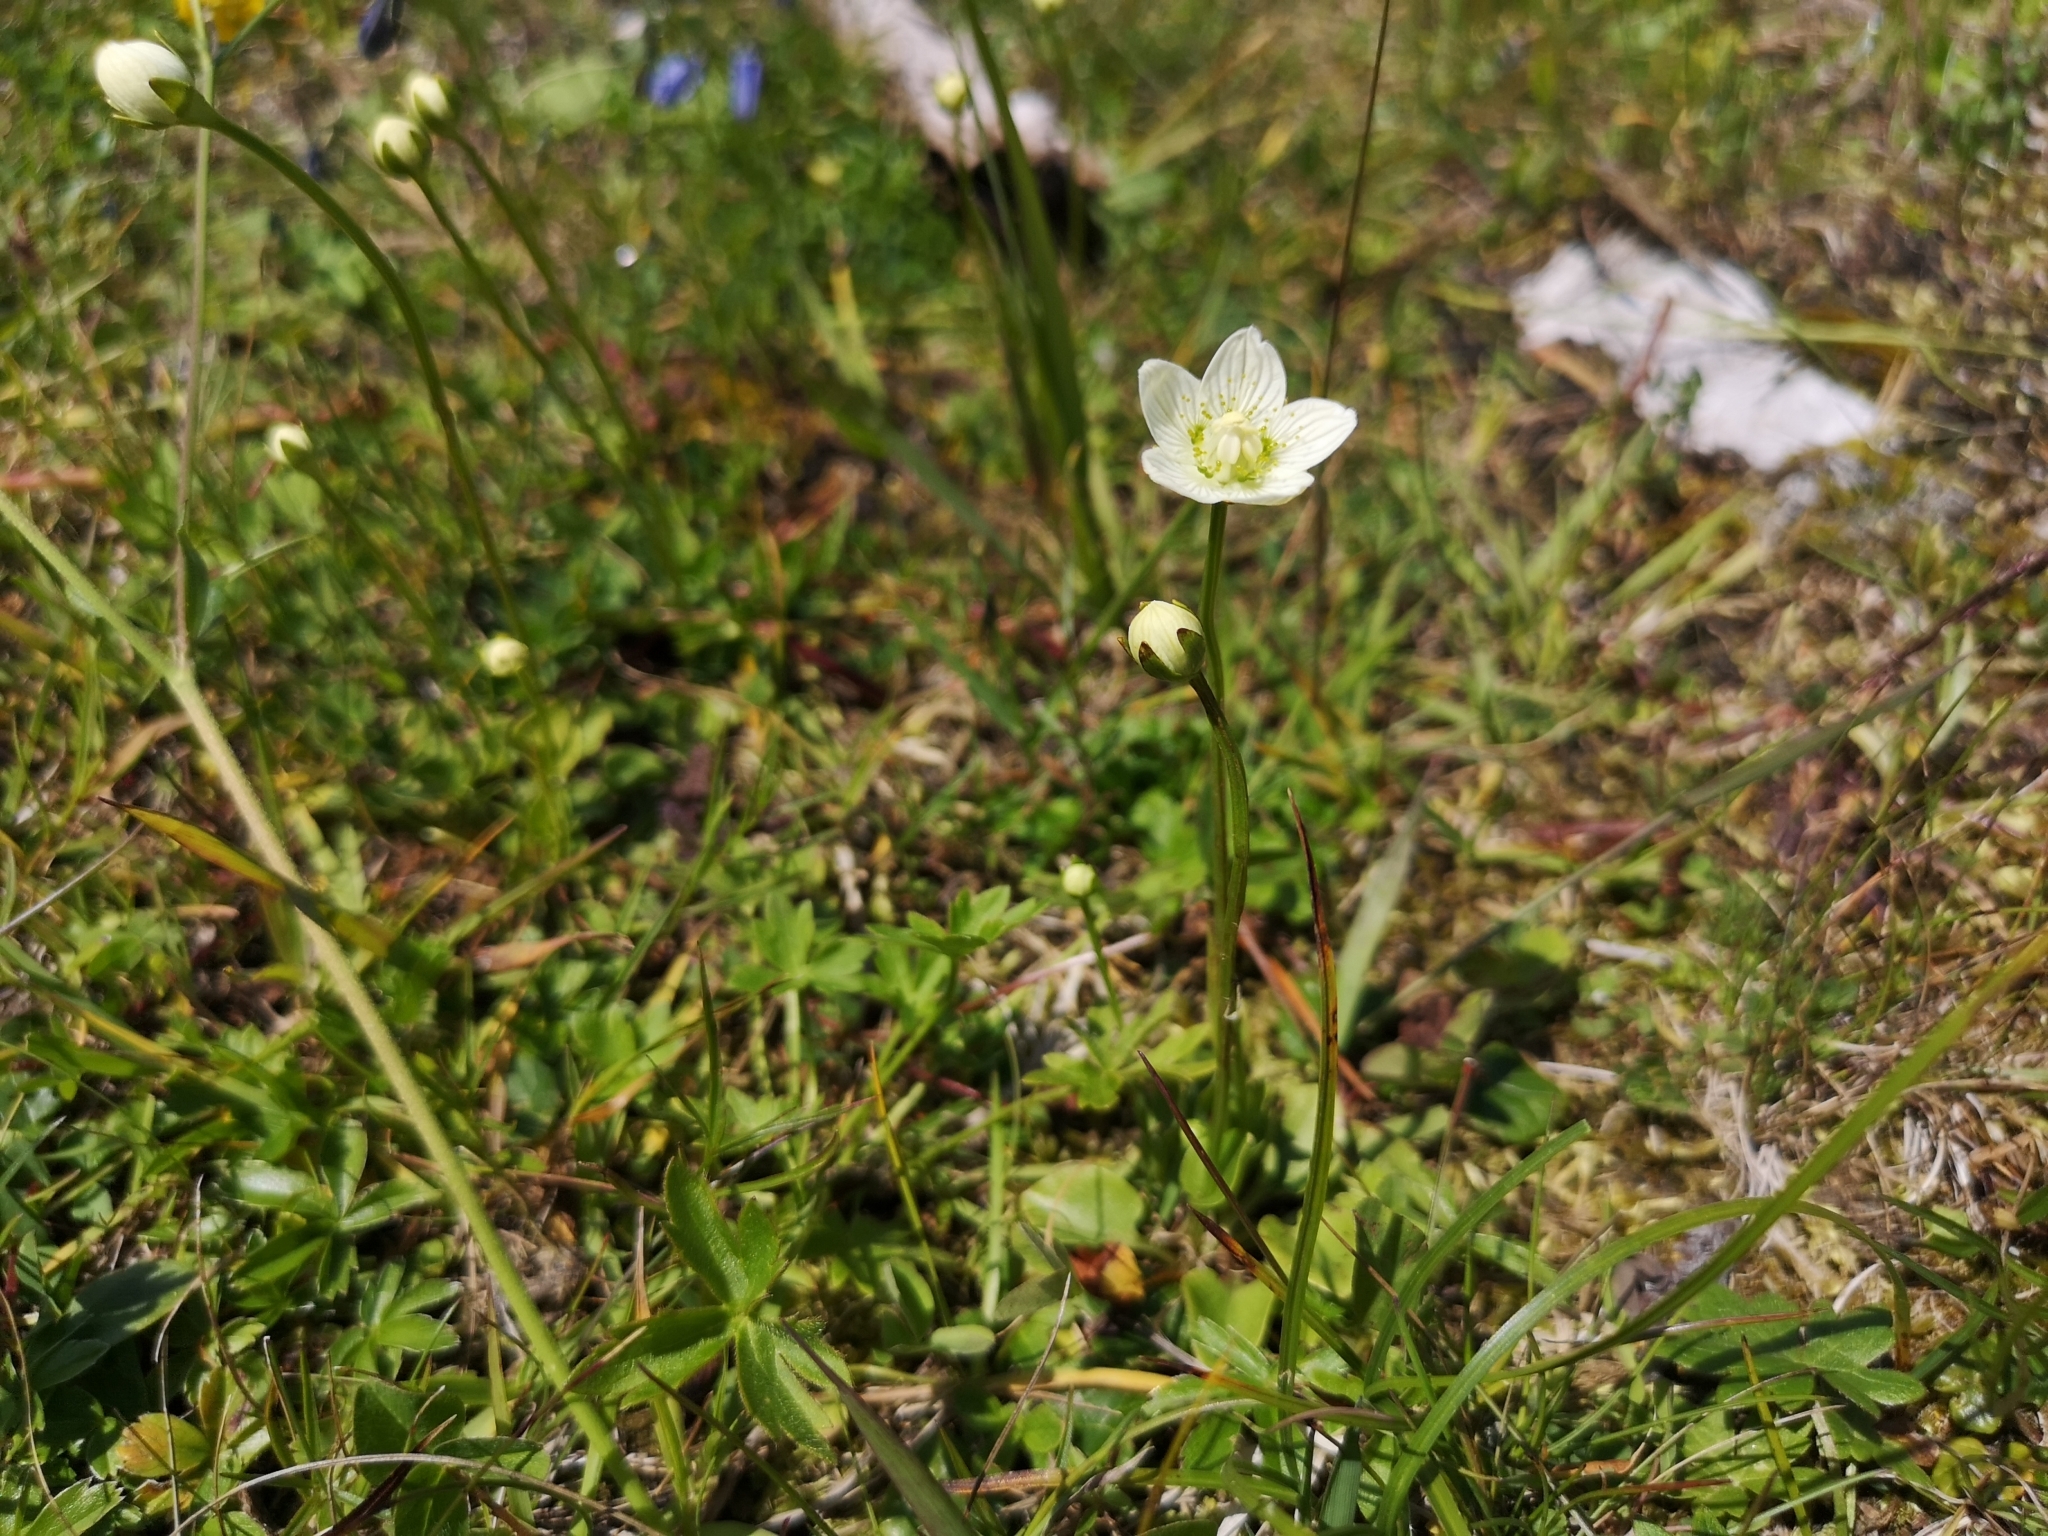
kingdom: Plantae
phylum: Tracheophyta
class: Magnoliopsida
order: Celastrales
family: Parnassiaceae
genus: Parnassia
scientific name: Parnassia palustris
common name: Grass-of-parnassus
